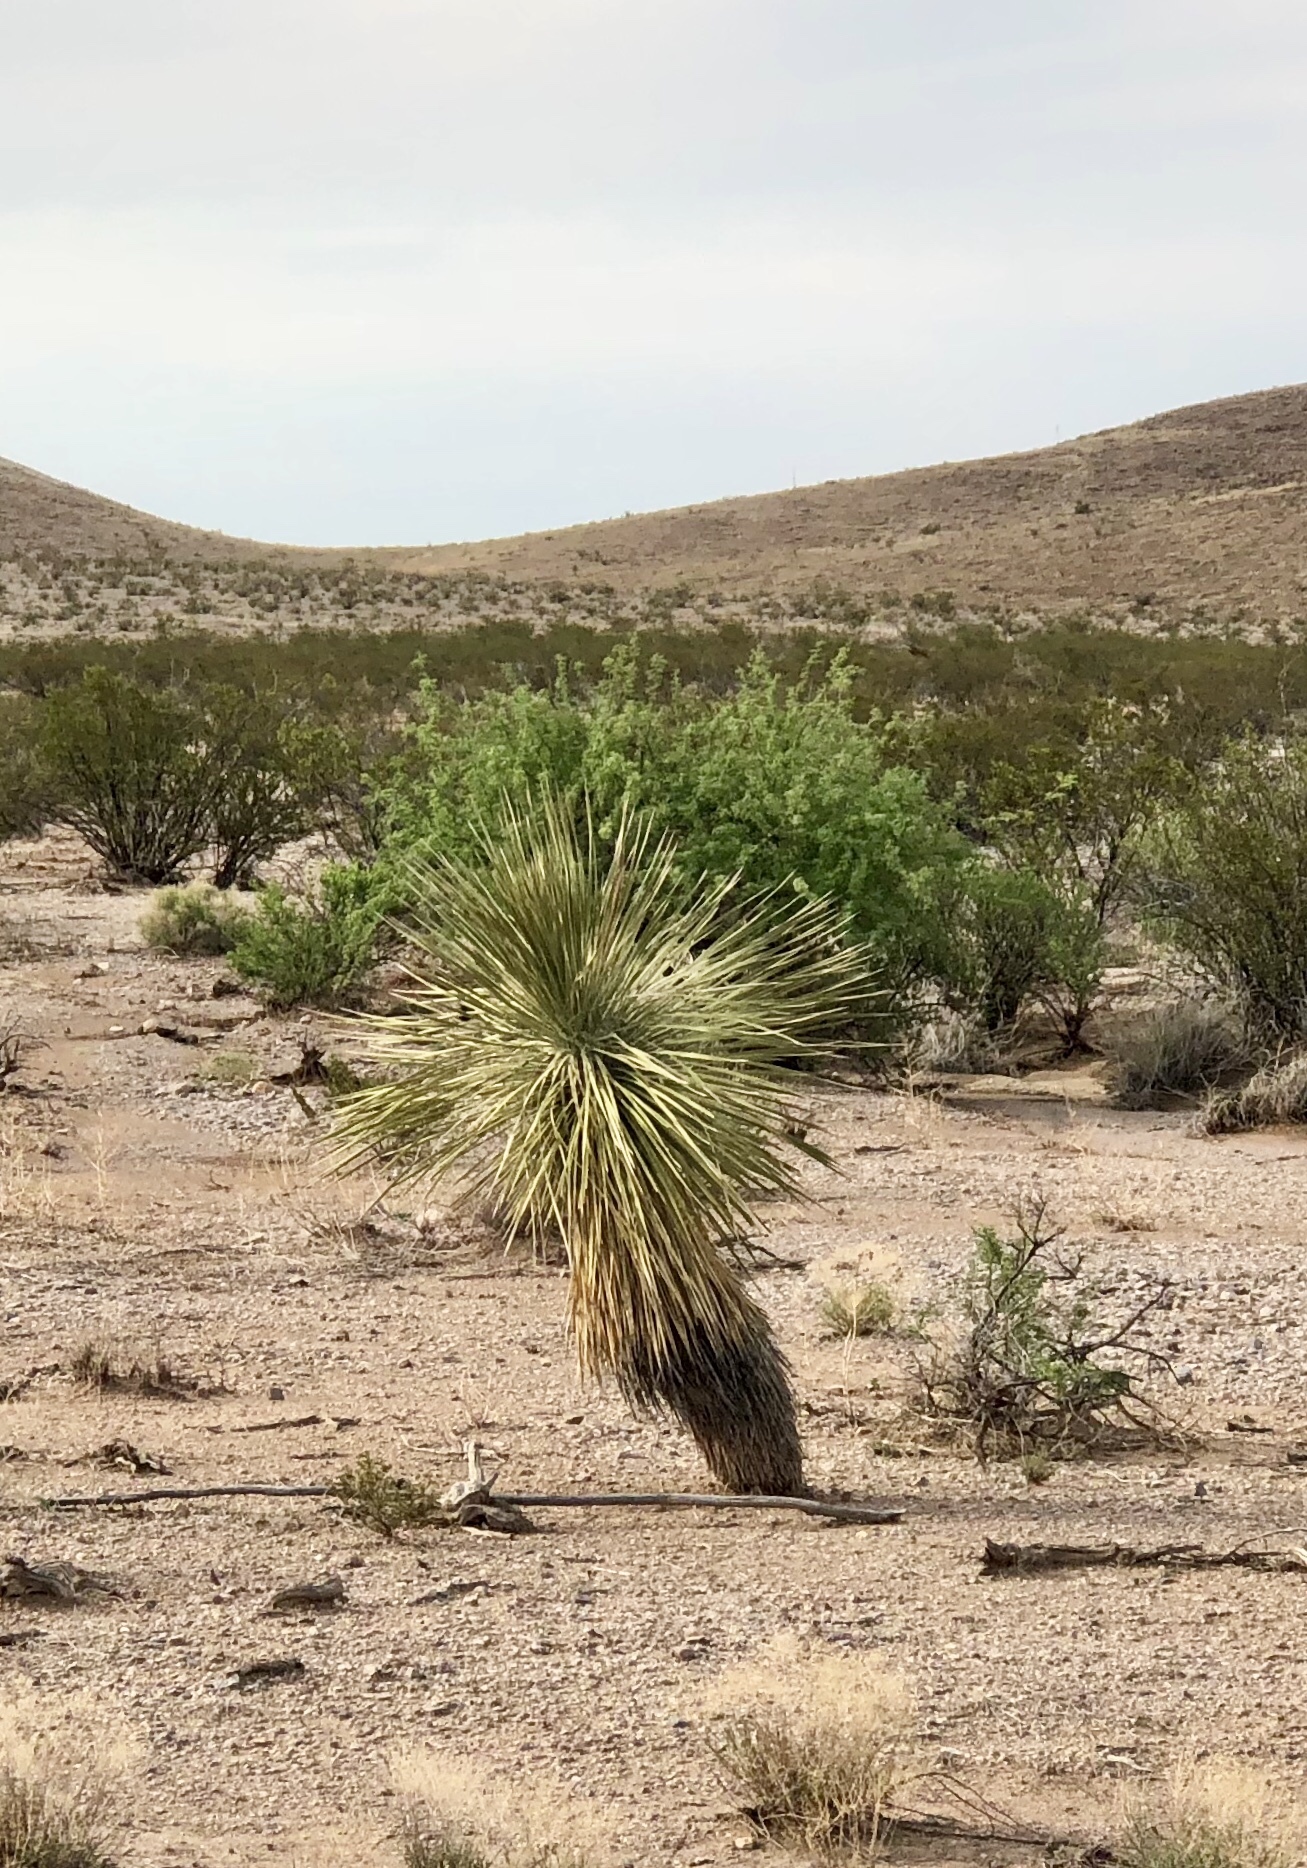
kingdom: Plantae
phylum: Tracheophyta
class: Liliopsida
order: Asparagales
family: Asparagaceae
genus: Yucca
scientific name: Yucca elata
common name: Palmella
